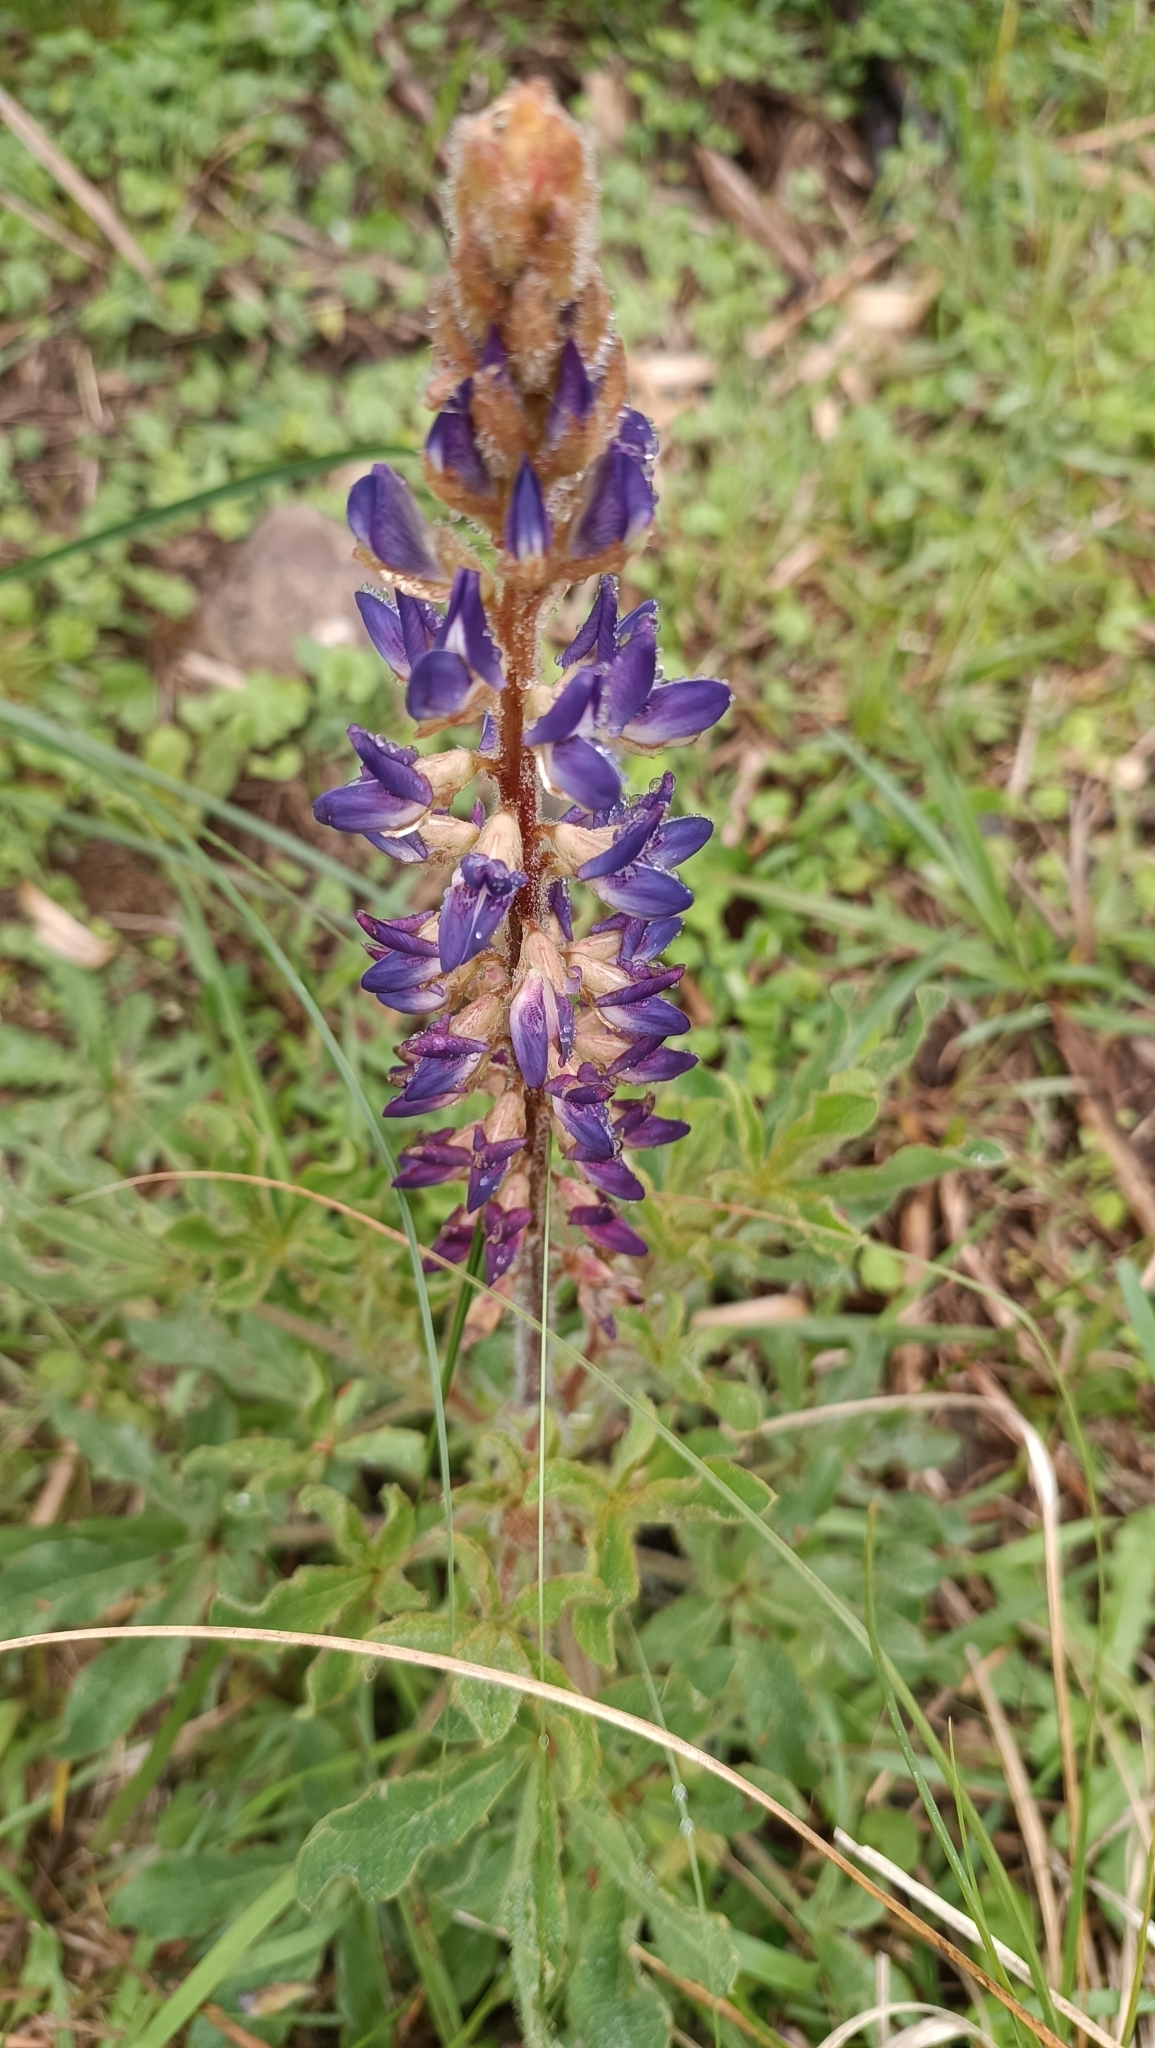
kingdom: Plantae
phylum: Tracheophyta
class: Magnoliopsida
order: Fabales
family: Fabaceae
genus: Lupinus
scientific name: Lupinus bracteolaris
